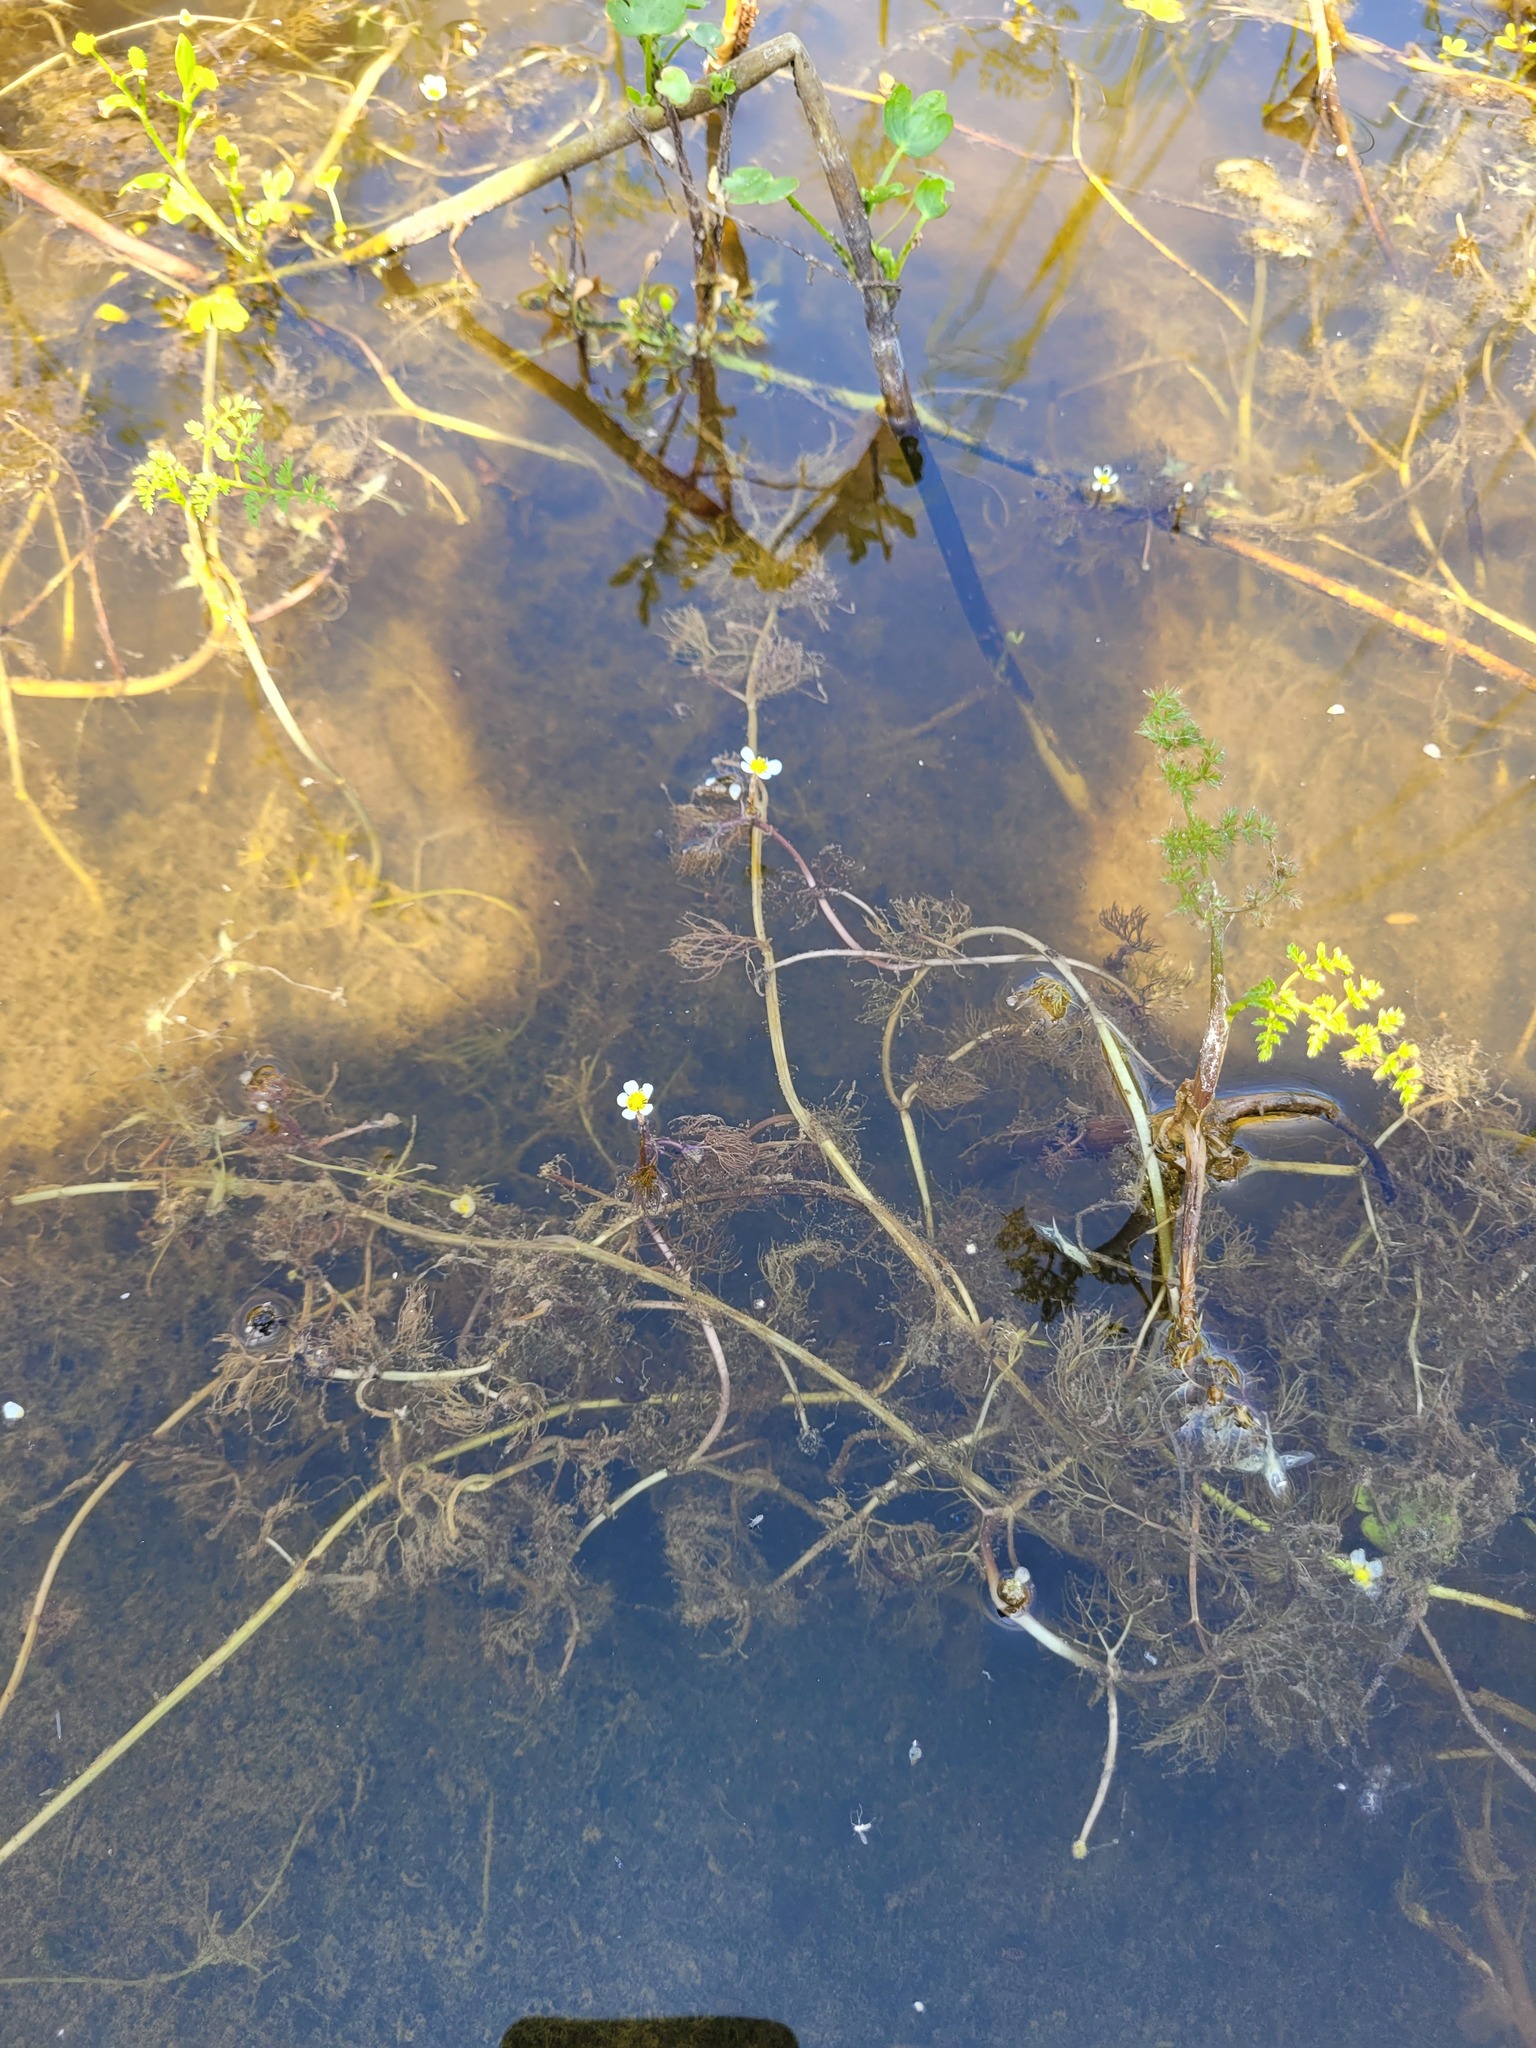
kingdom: Plantae
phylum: Tracheophyta
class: Magnoliopsida
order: Ranunculales
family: Ranunculaceae
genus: Ranunculus
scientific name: Ranunculus rionii
